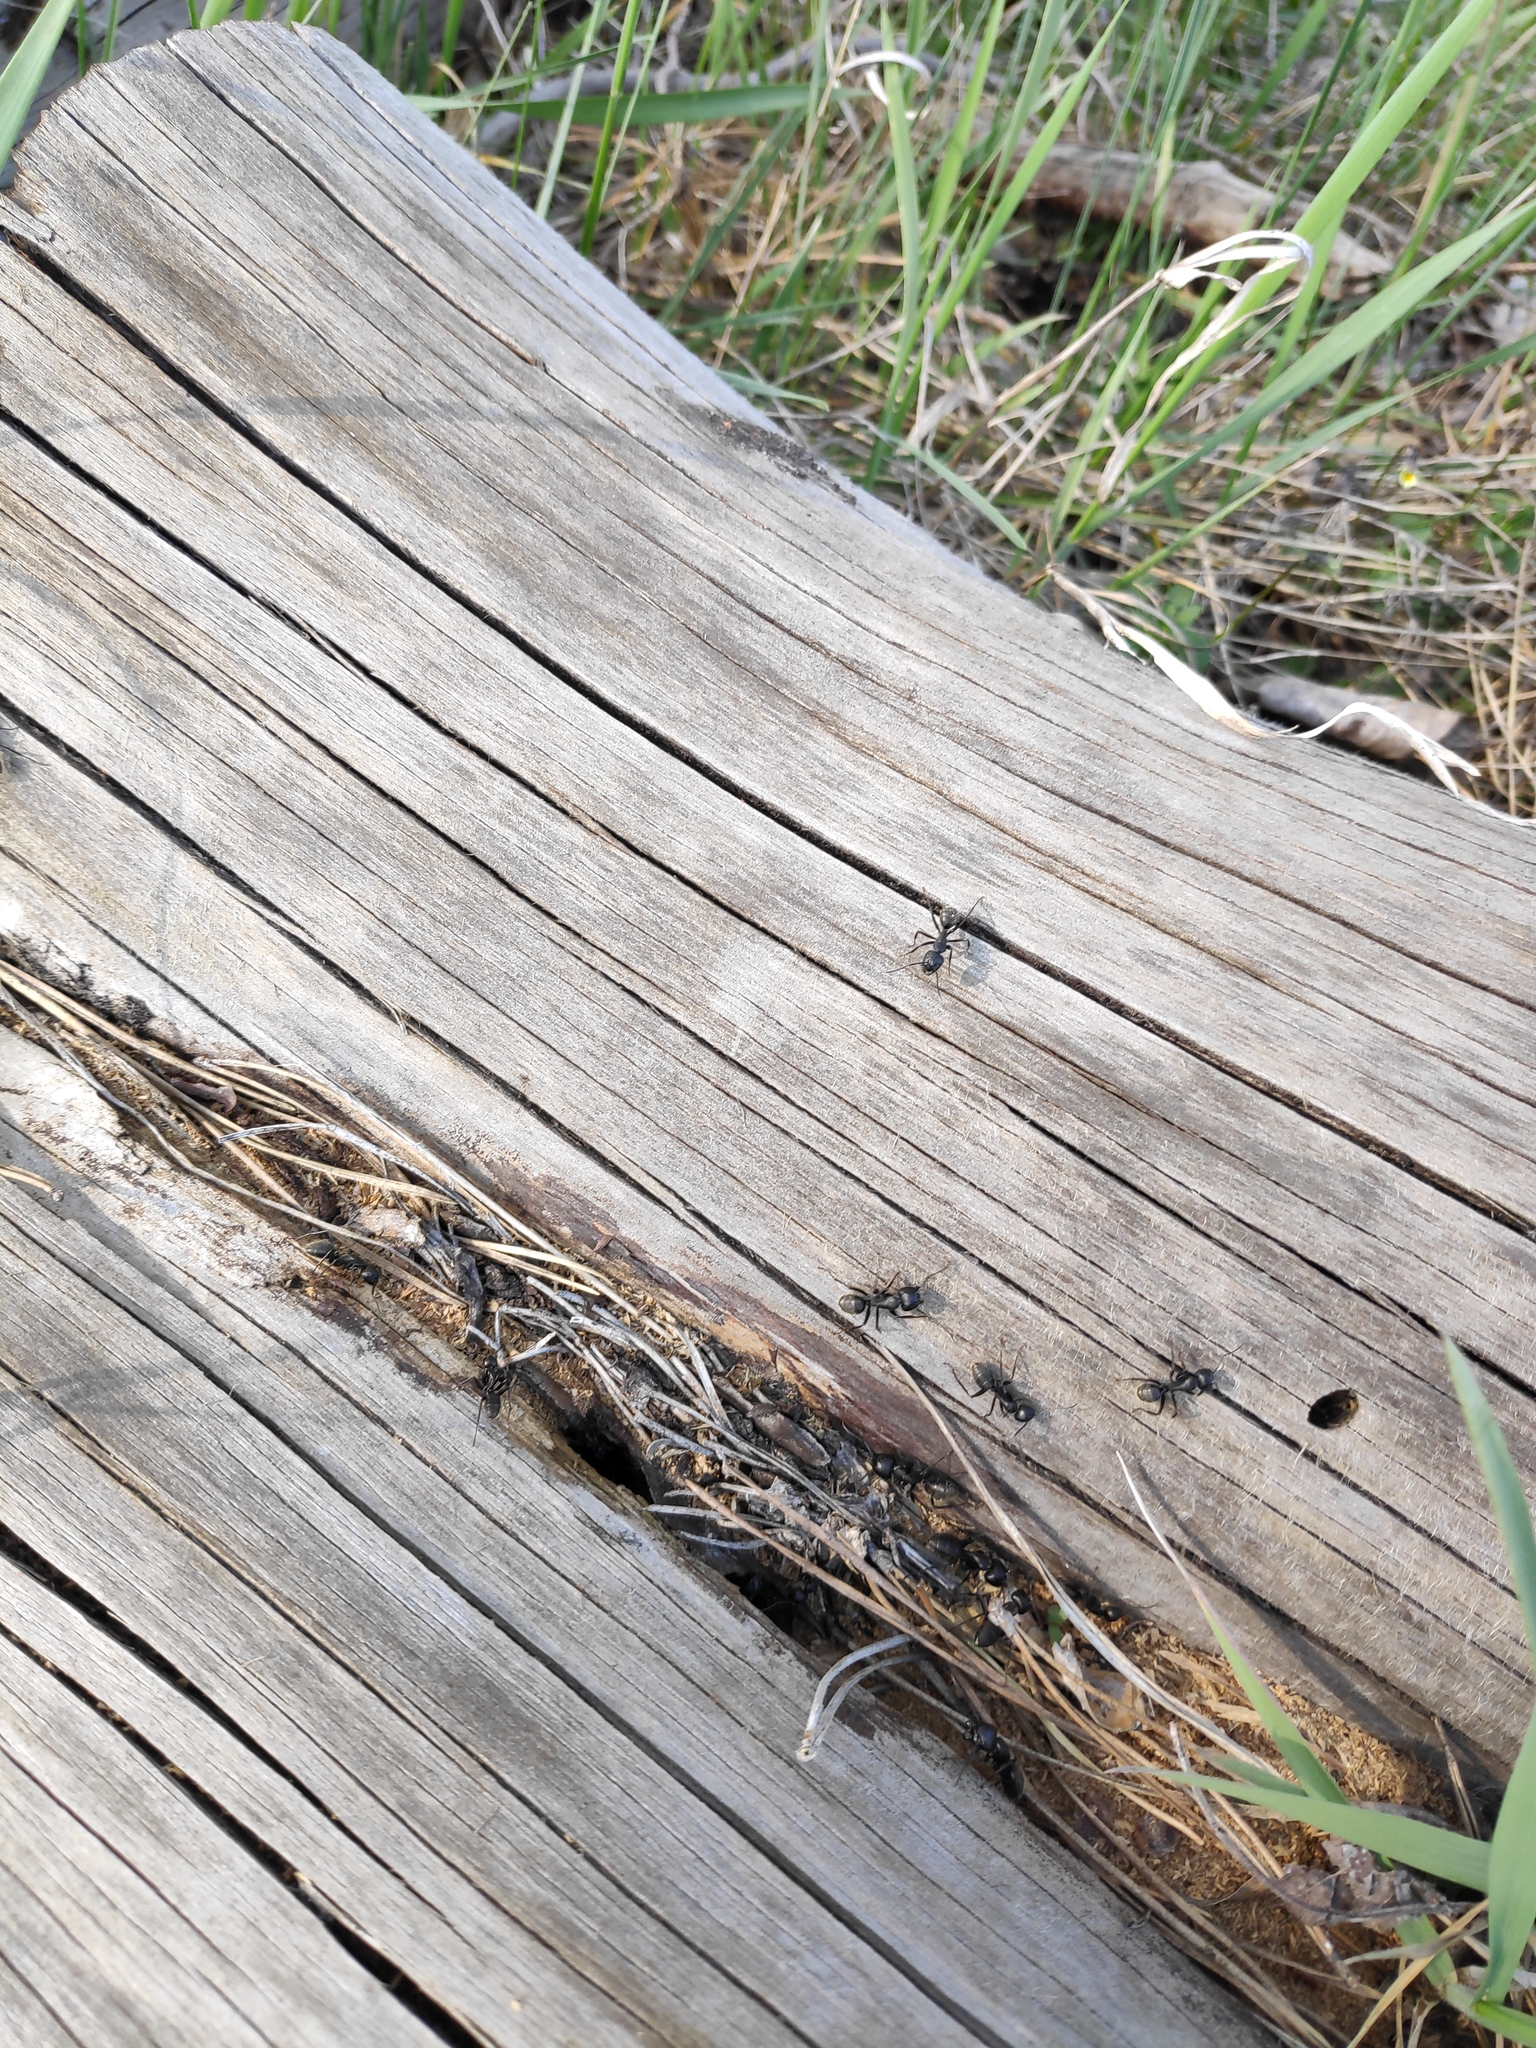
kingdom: Animalia
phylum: Arthropoda
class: Insecta
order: Hymenoptera
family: Formicidae
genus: Camponotus
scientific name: Camponotus vagus
